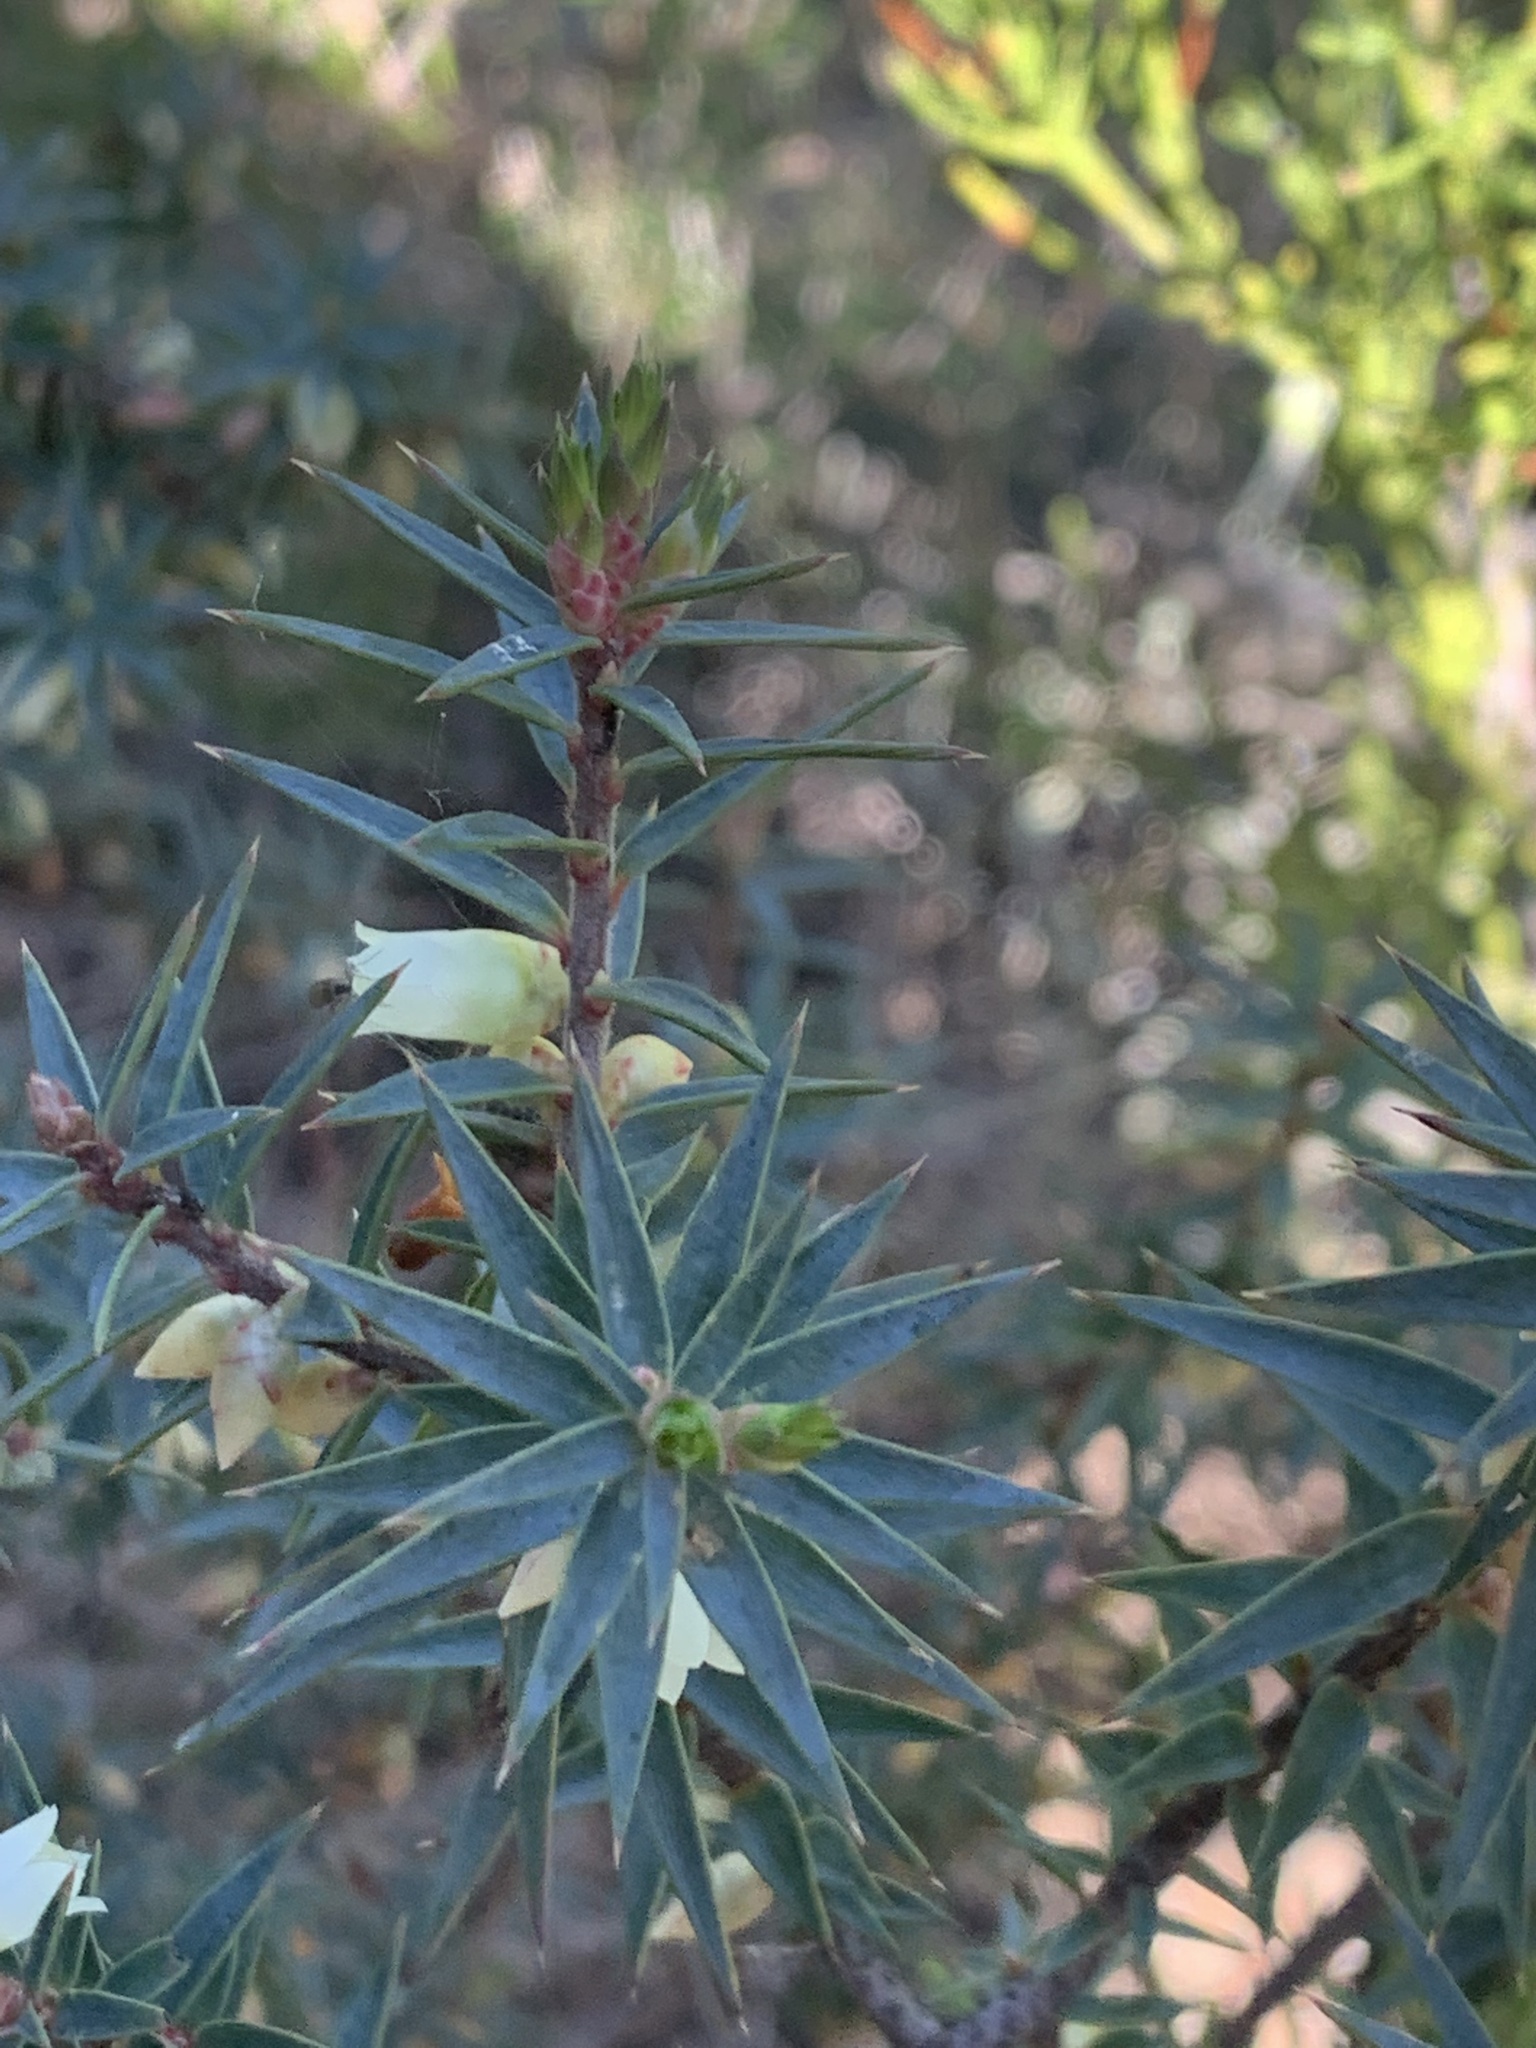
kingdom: Plantae
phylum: Tracheophyta
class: Magnoliopsida
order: Ericales
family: Ericaceae
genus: Melichrus
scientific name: Melichrus urceolatus
